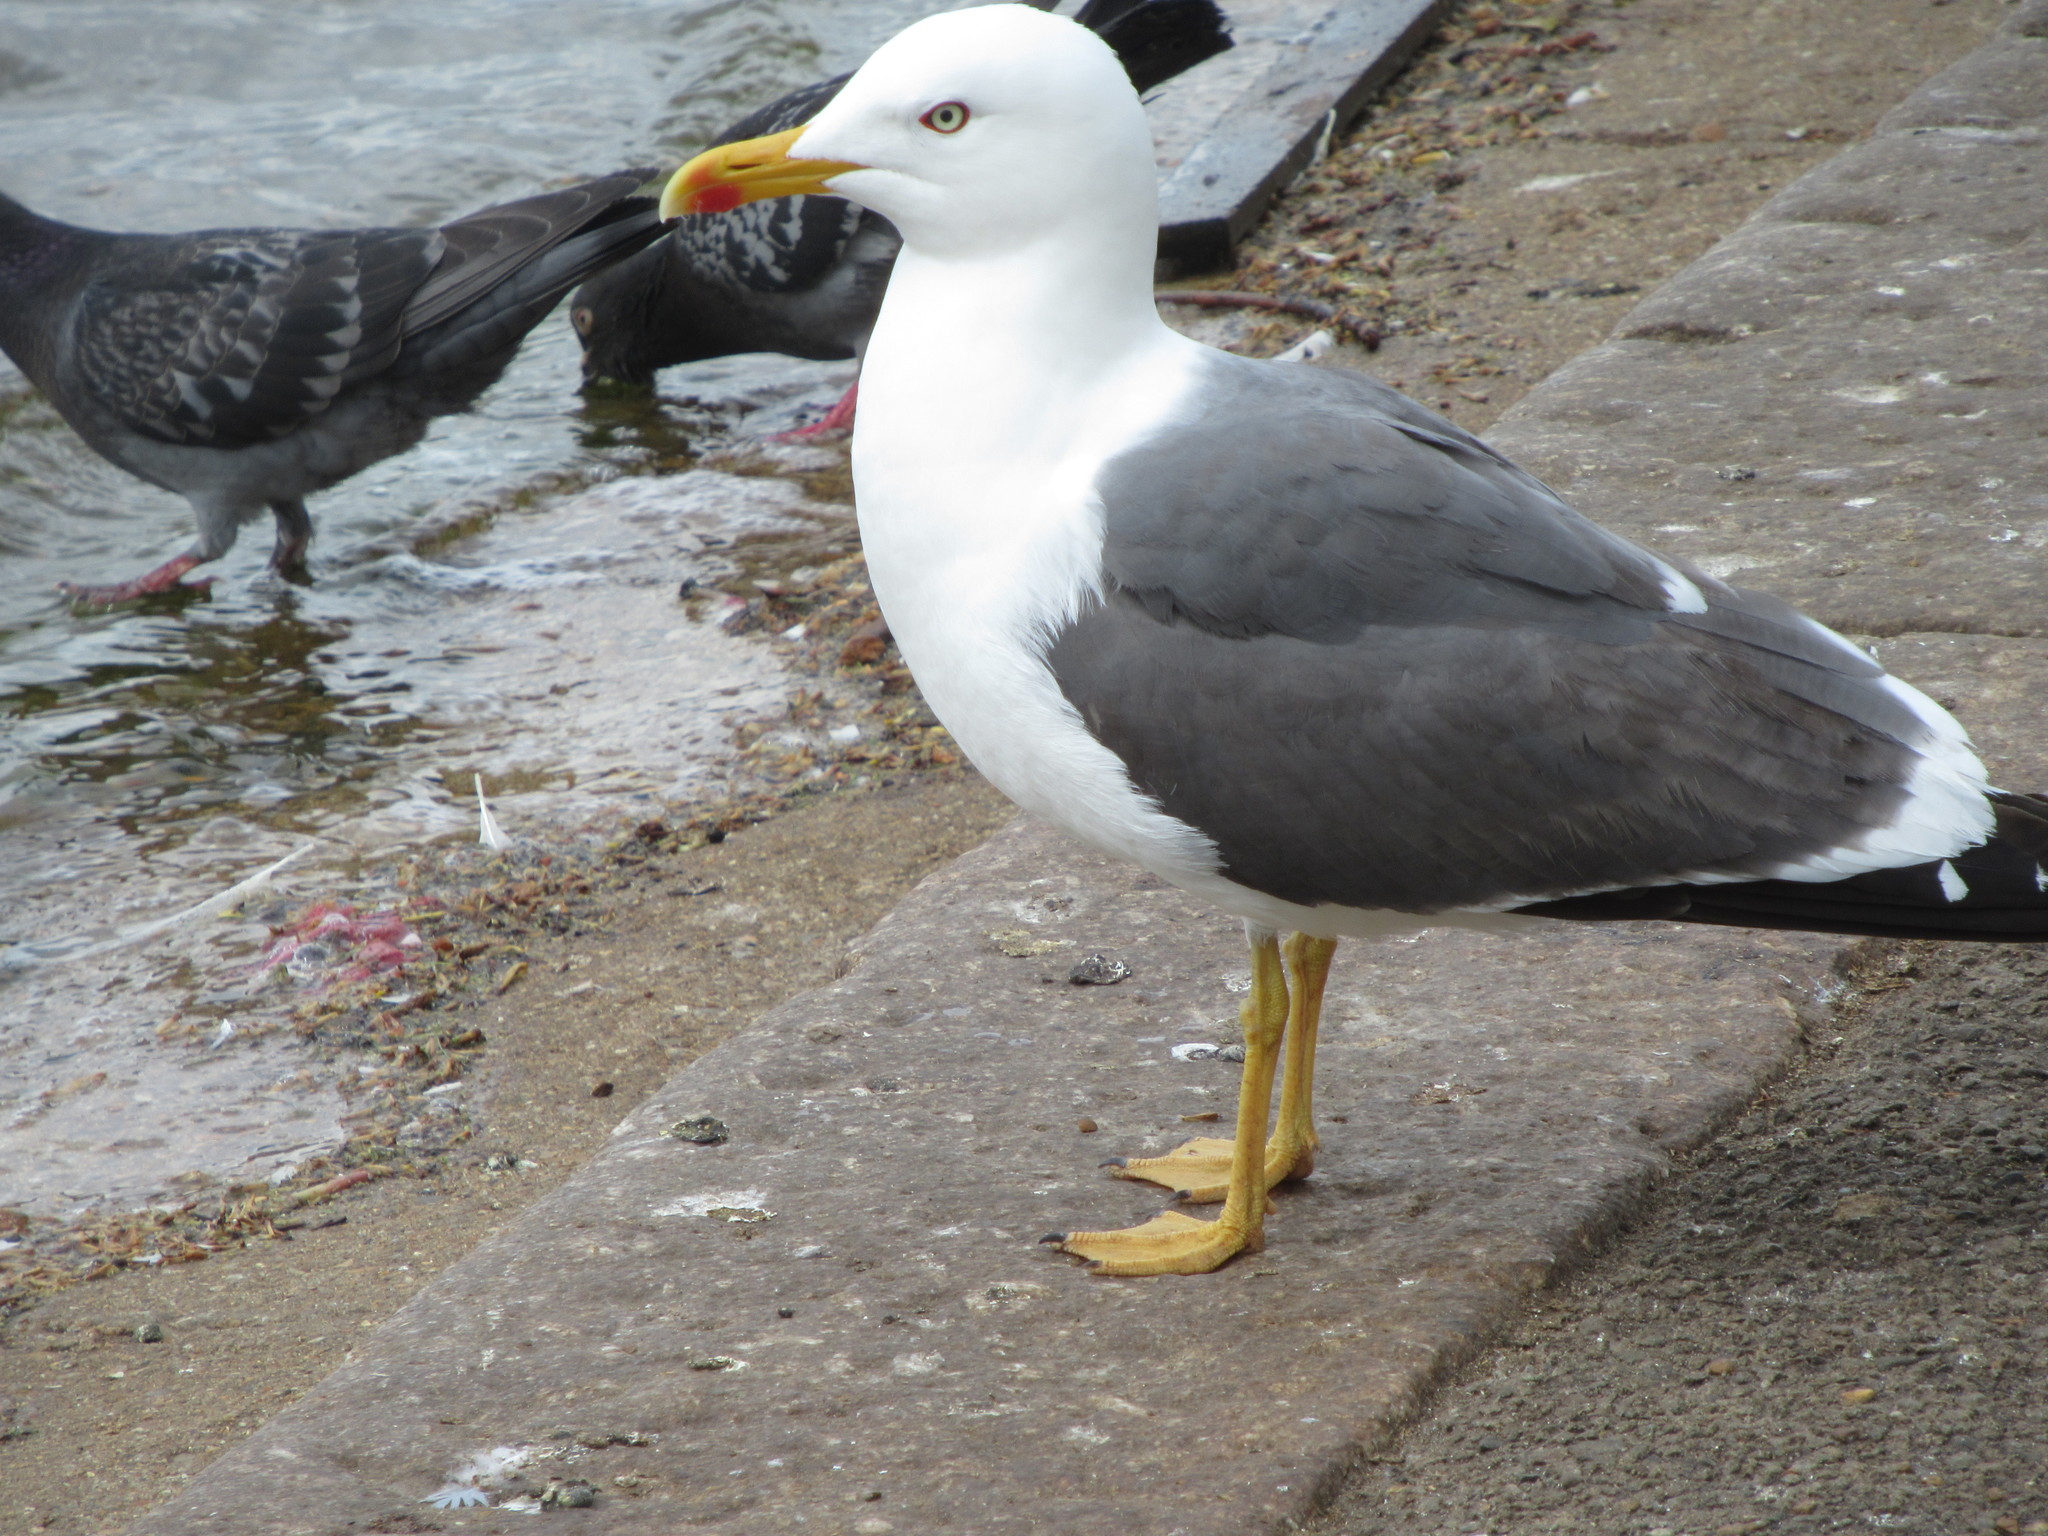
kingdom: Animalia
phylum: Chordata
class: Aves
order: Charadriiformes
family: Laridae
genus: Larus
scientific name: Larus fuscus
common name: Lesser black-backed gull
